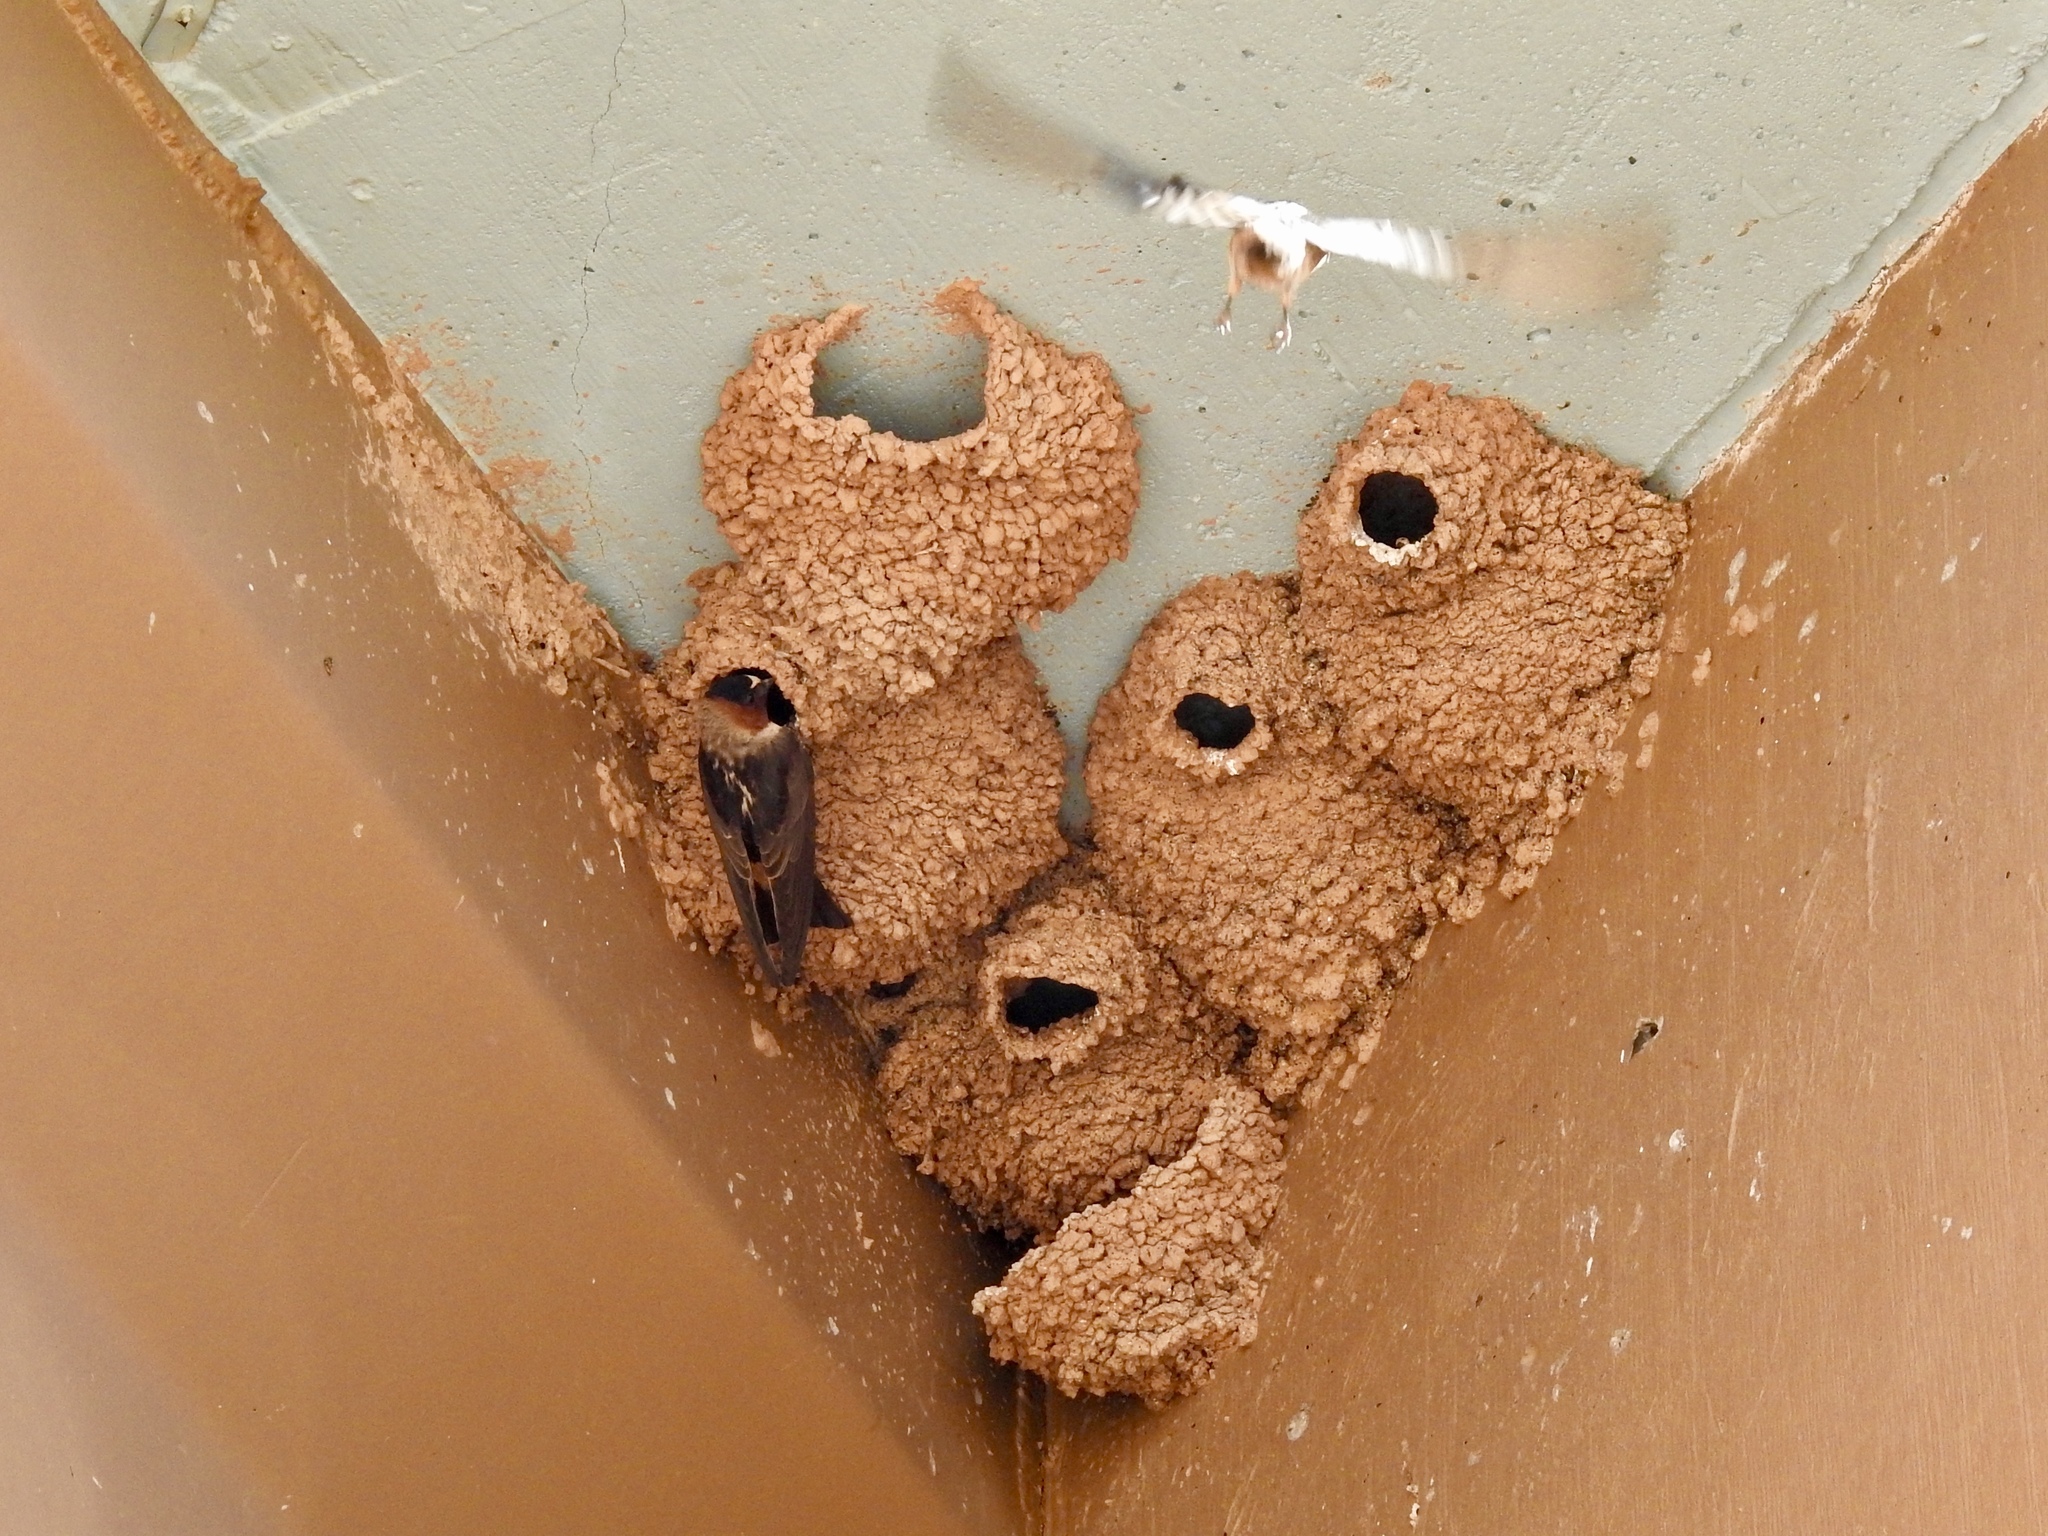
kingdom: Animalia
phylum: Chordata
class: Aves
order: Passeriformes
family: Hirundinidae
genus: Petrochelidon
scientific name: Petrochelidon pyrrhonota
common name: American cliff swallow
